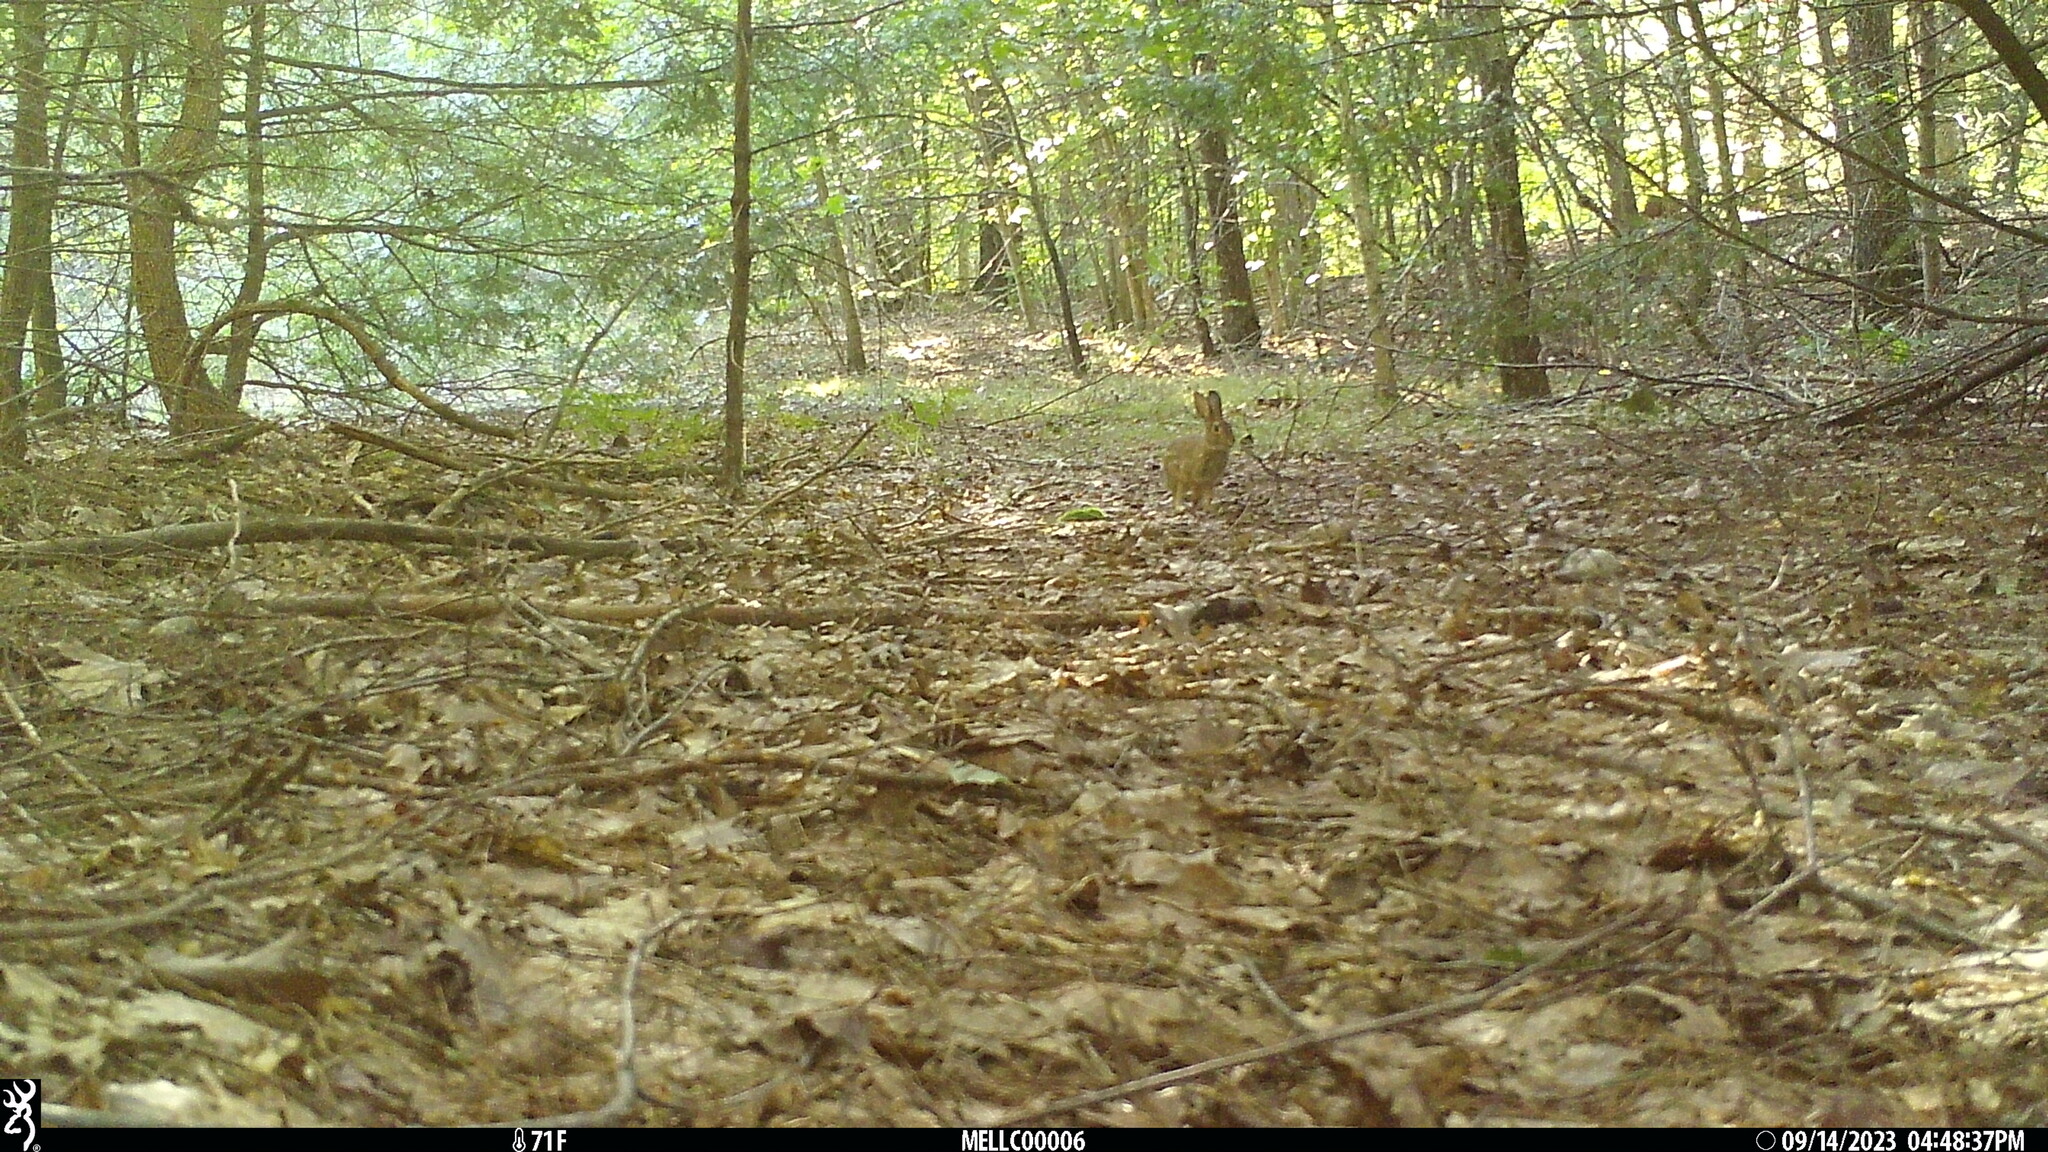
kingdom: Animalia
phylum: Chordata
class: Mammalia
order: Lagomorpha
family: Leporidae
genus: Sylvilagus
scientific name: Sylvilagus floridanus
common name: Eastern cottontail
